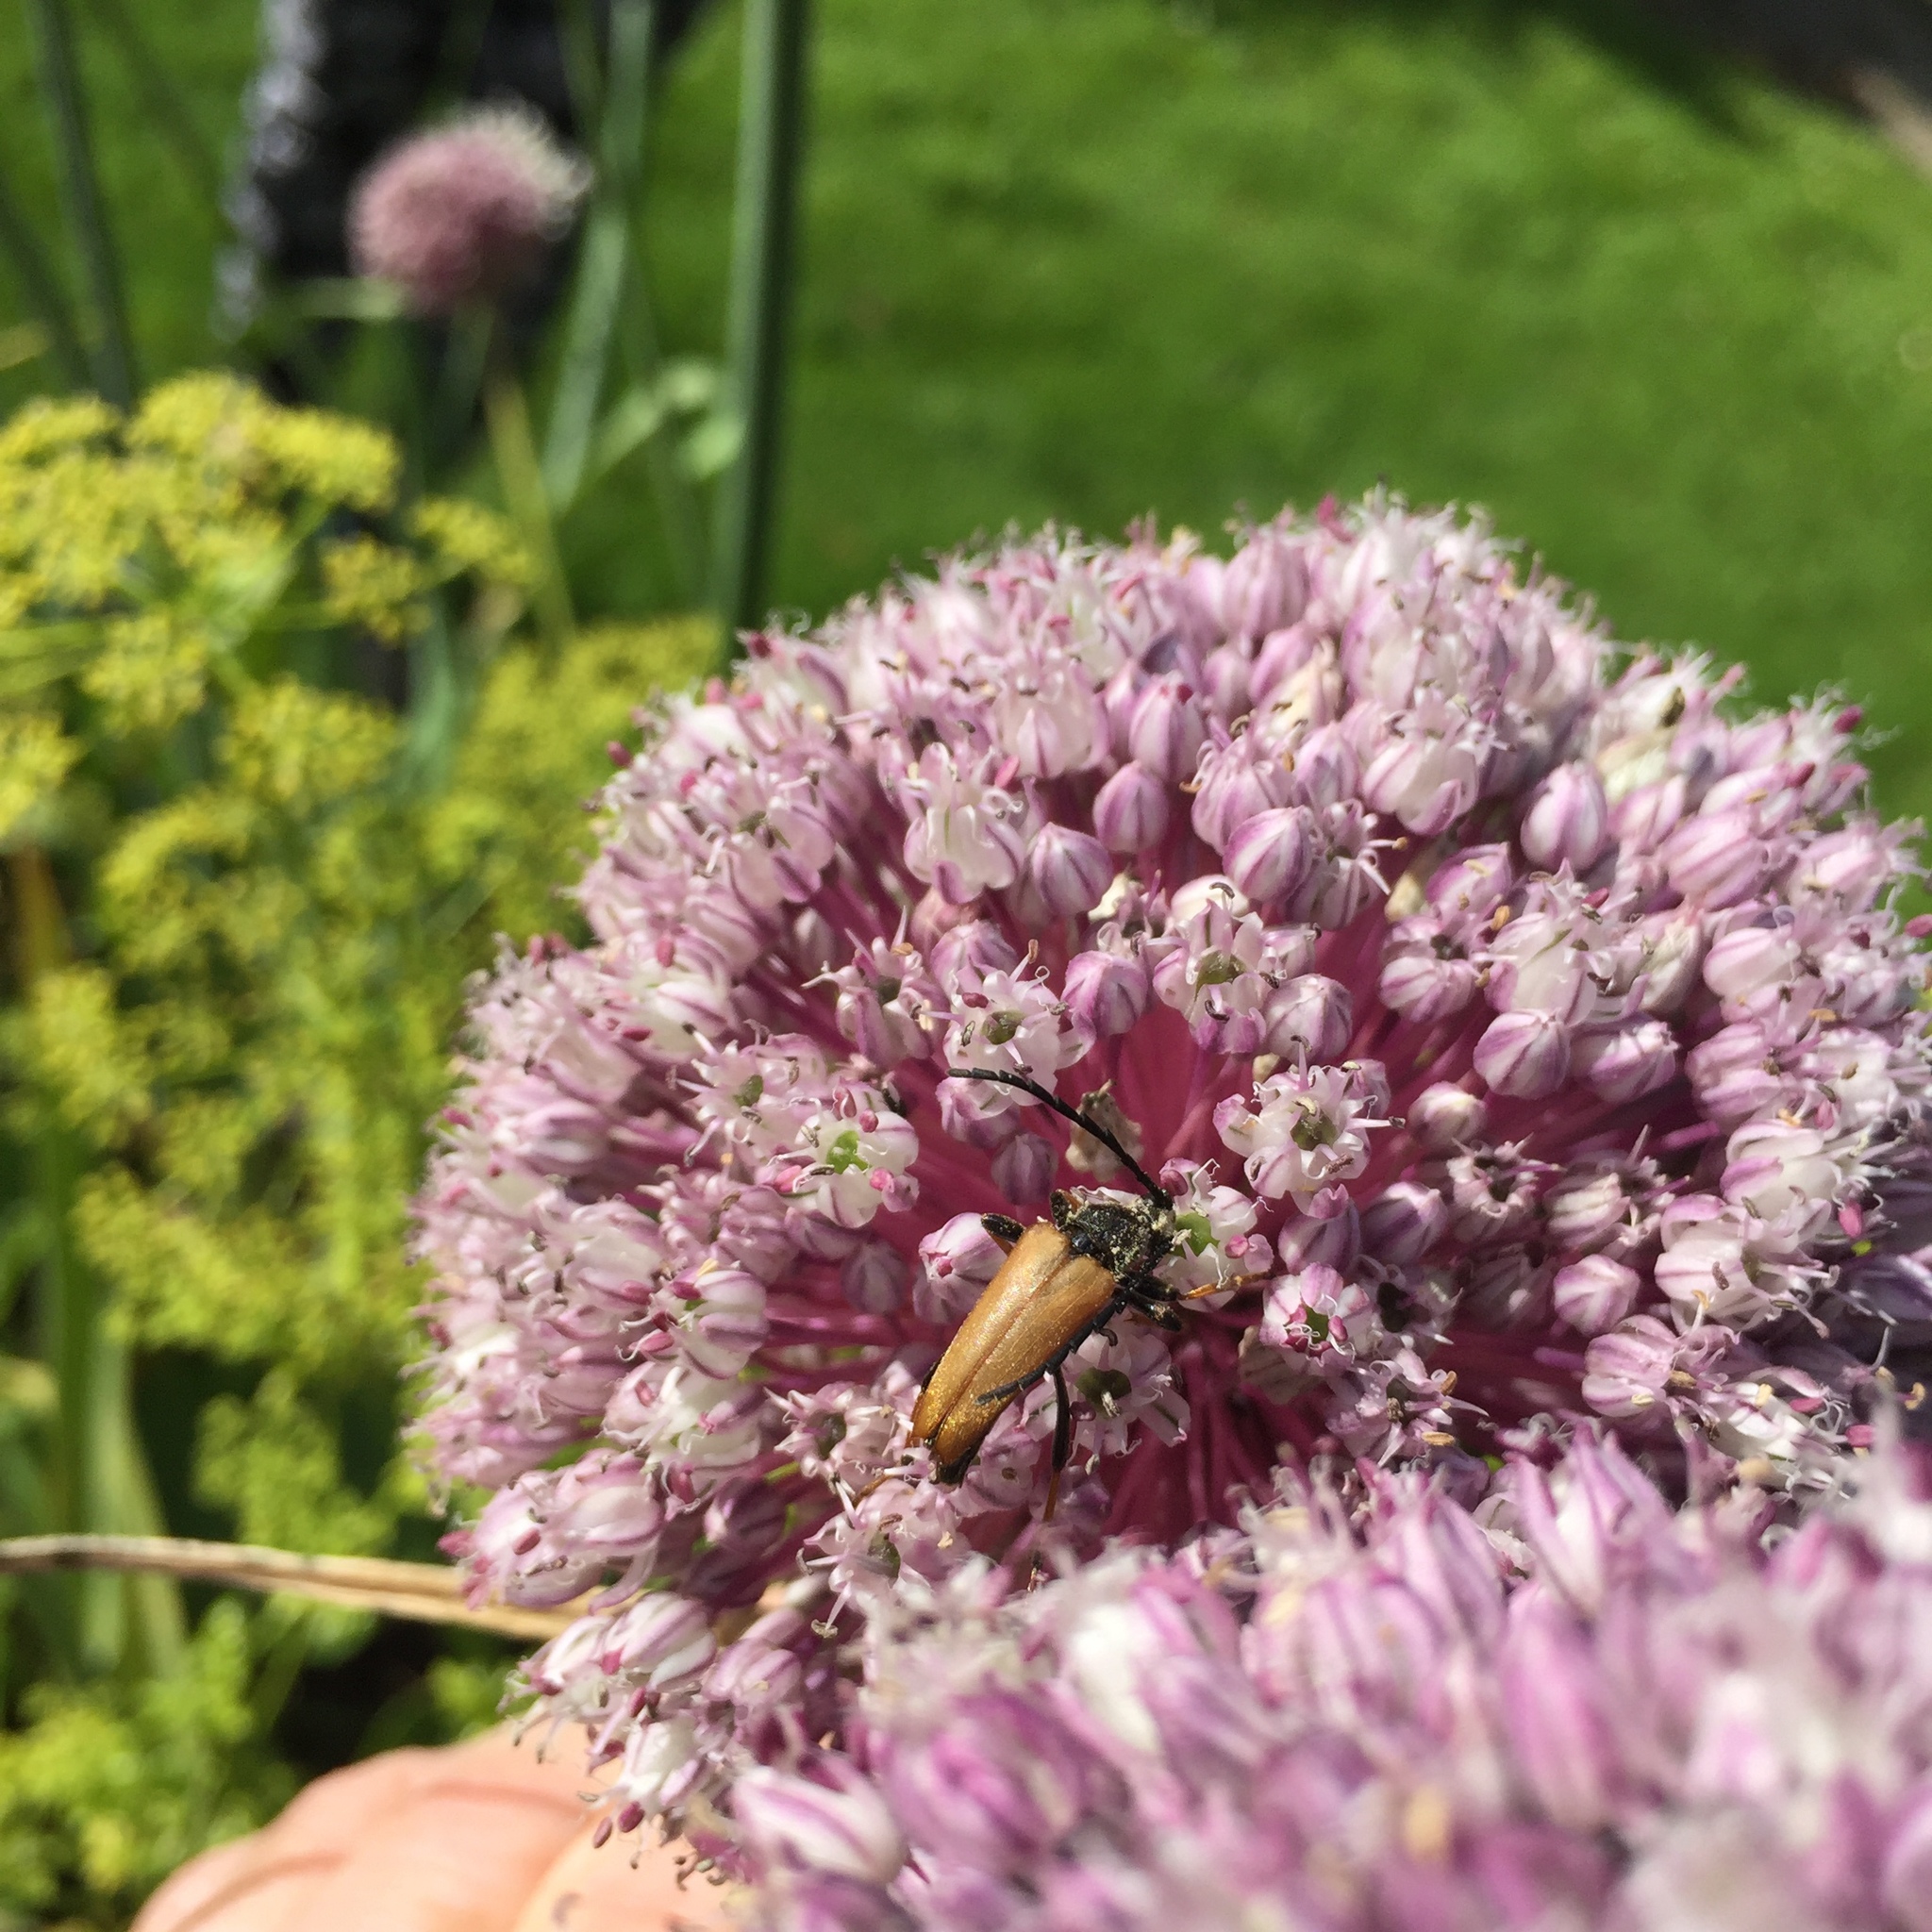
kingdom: Animalia
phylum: Arthropoda
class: Insecta
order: Coleoptera
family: Cerambycidae
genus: Stictoleptura
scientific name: Stictoleptura rubra
